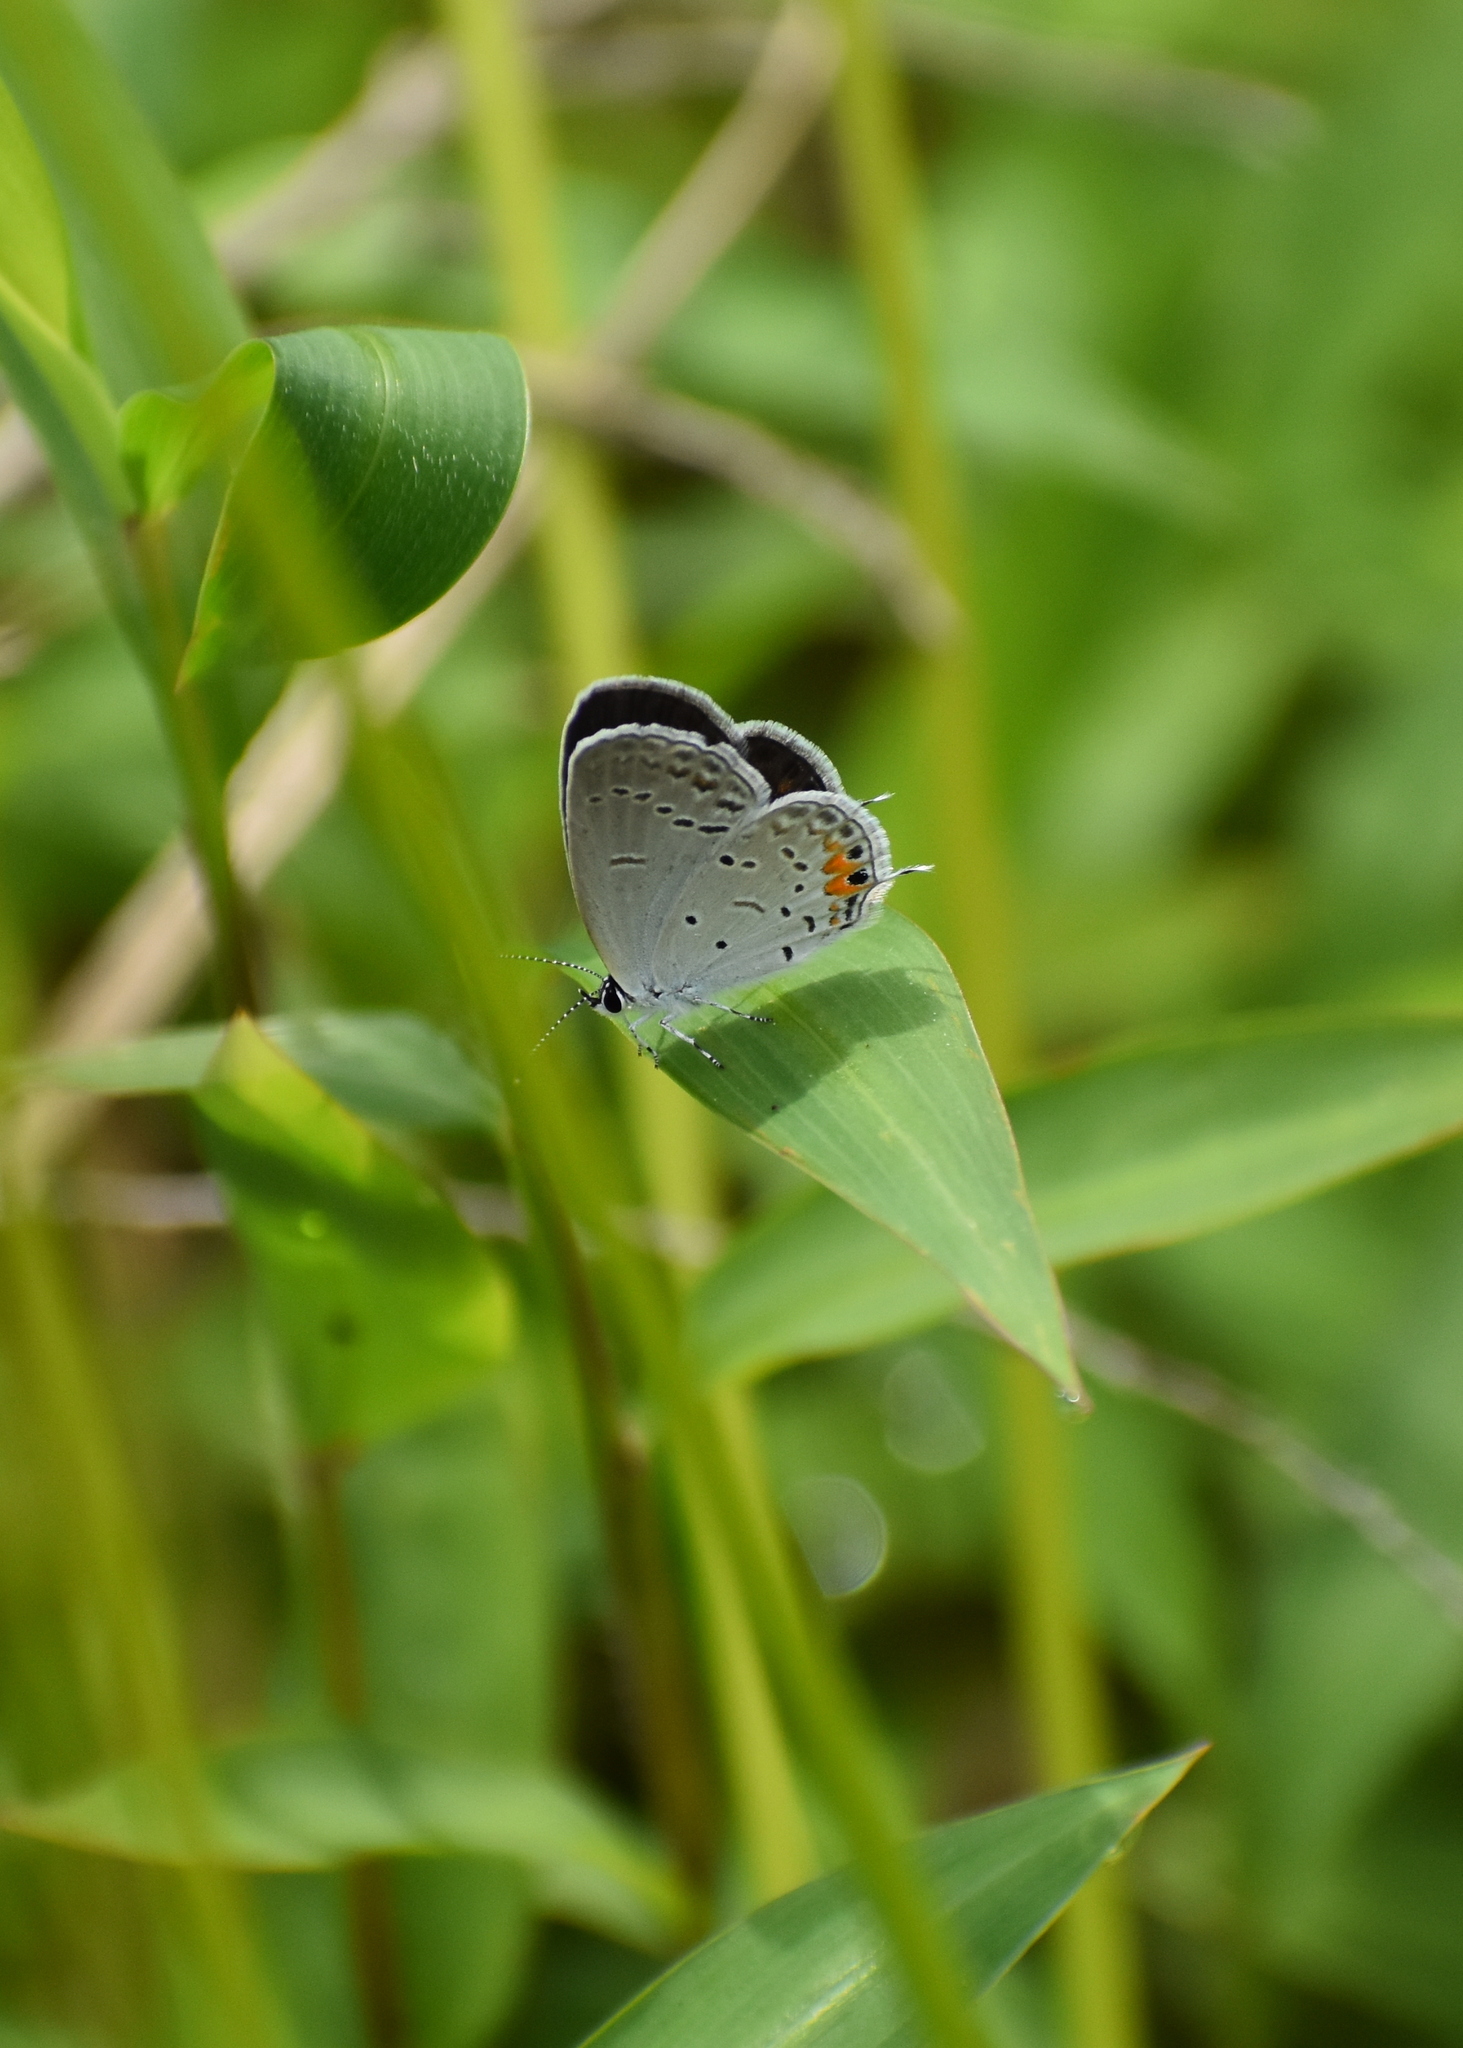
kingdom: Animalia
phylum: Arthropoda
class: Insecta
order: Lepidoptera
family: Lycaenidae
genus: Elkalyce
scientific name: Elkalyce comyntas
